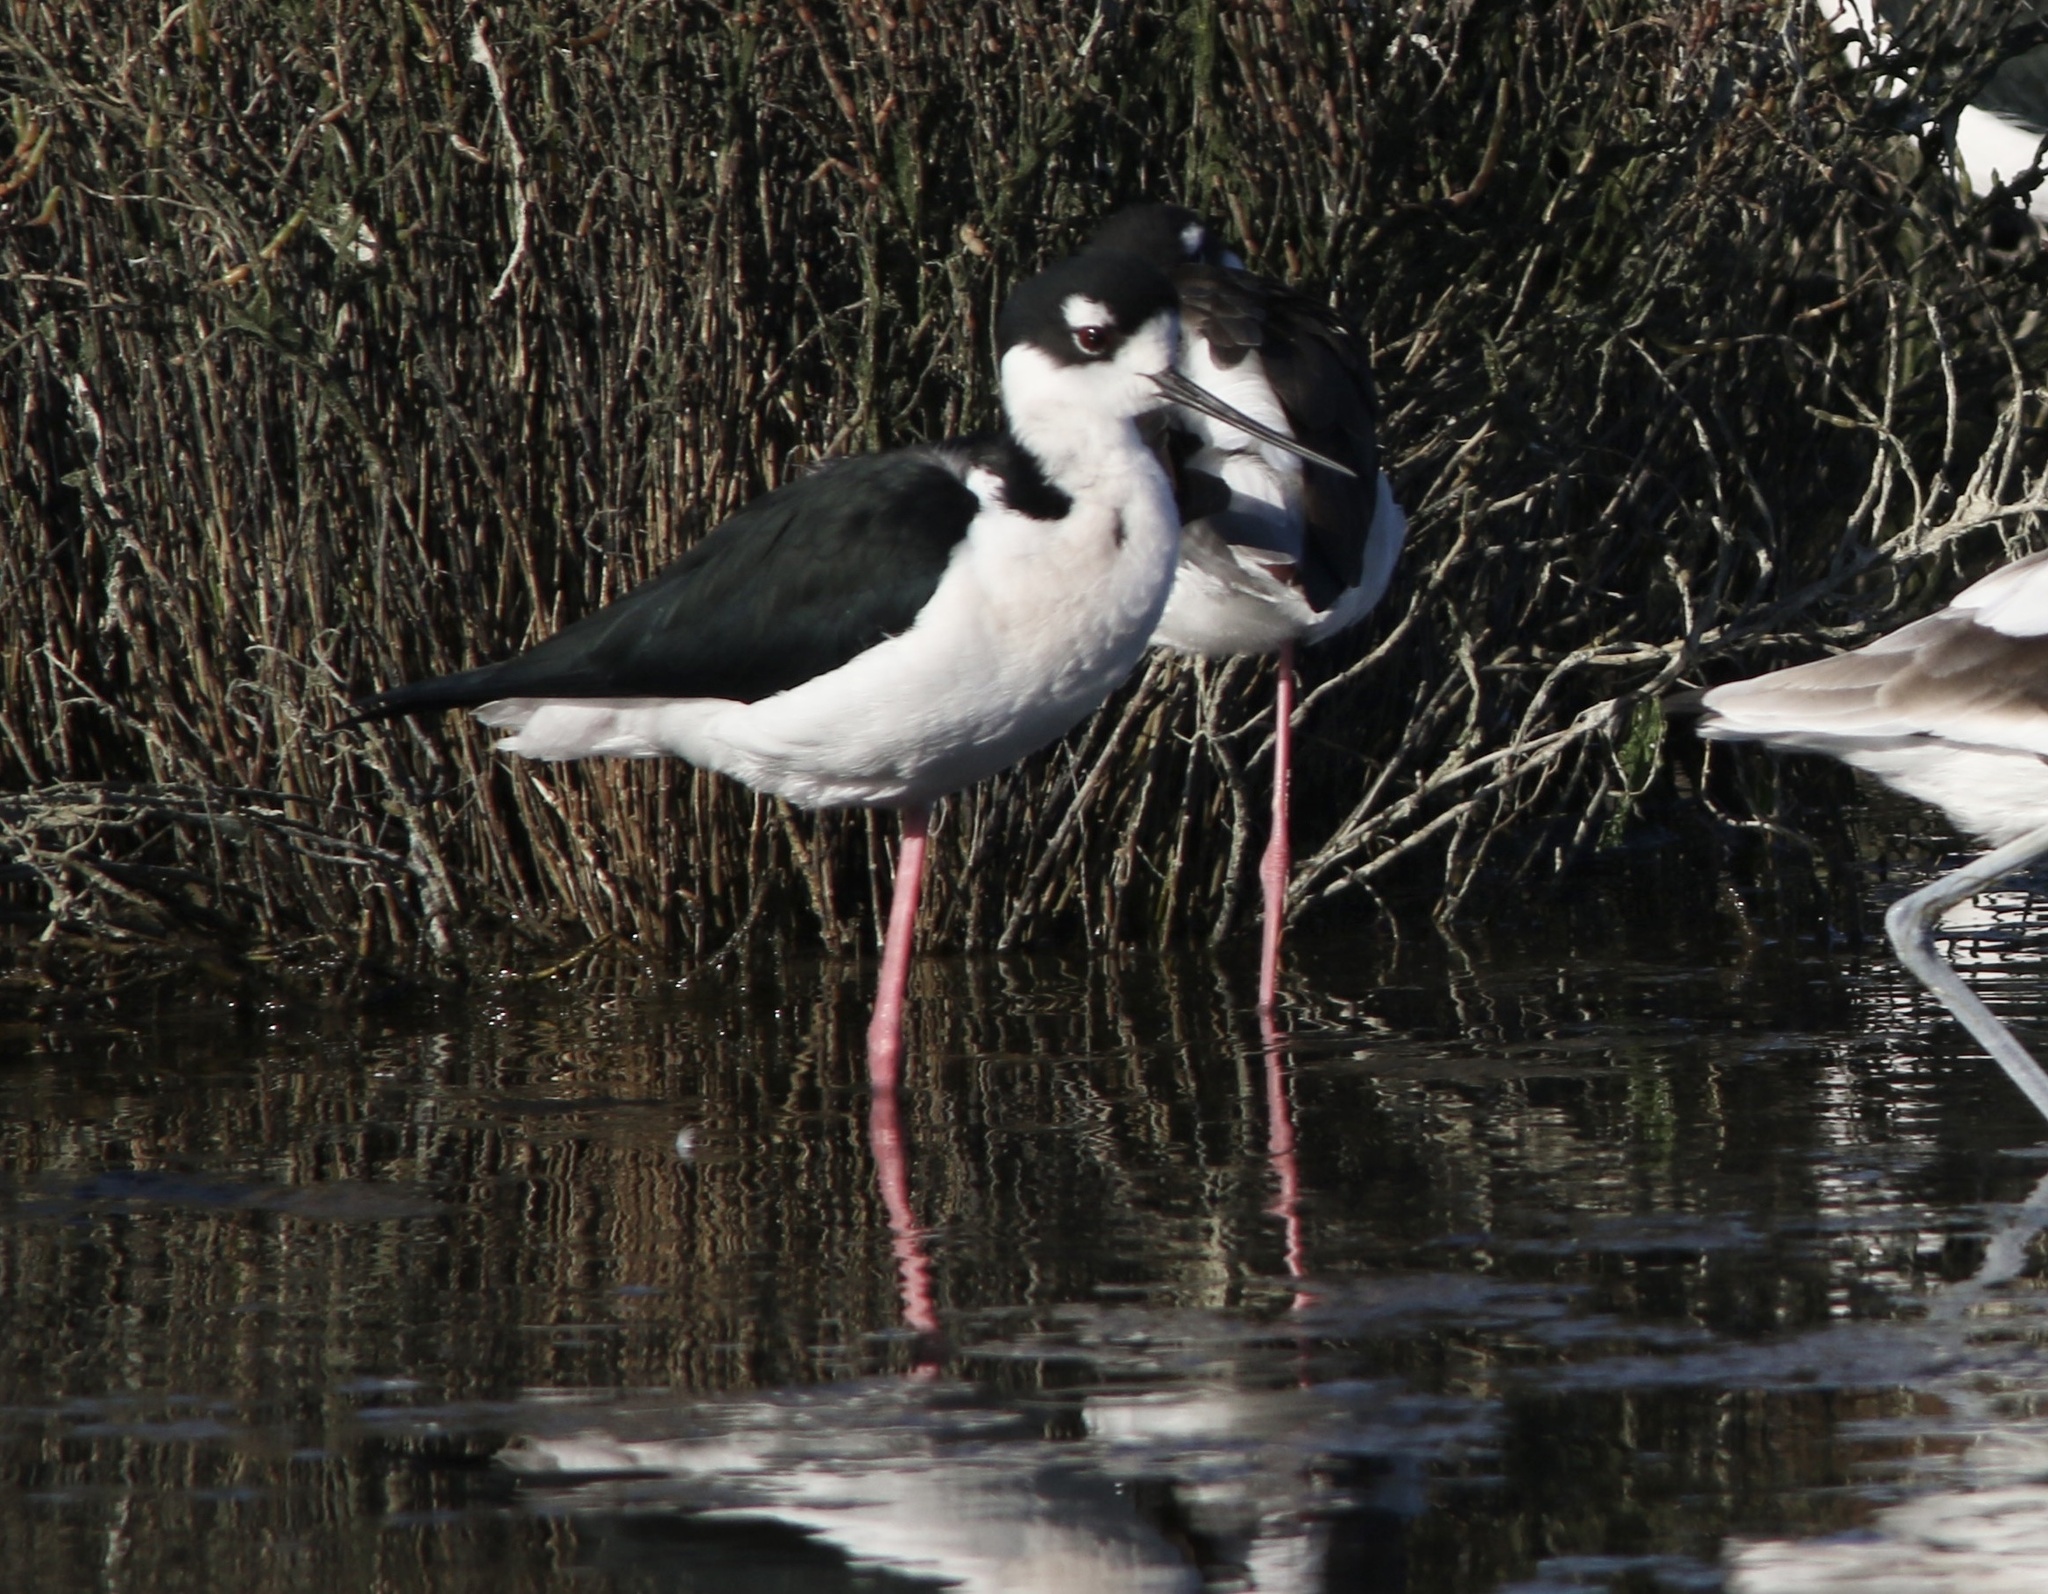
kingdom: Animalia
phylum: Chordata
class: Aves
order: Charadriiformes
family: Recurvirostridae
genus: Himantopus
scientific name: Himantopus mexicanus
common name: Black-necked stilt
